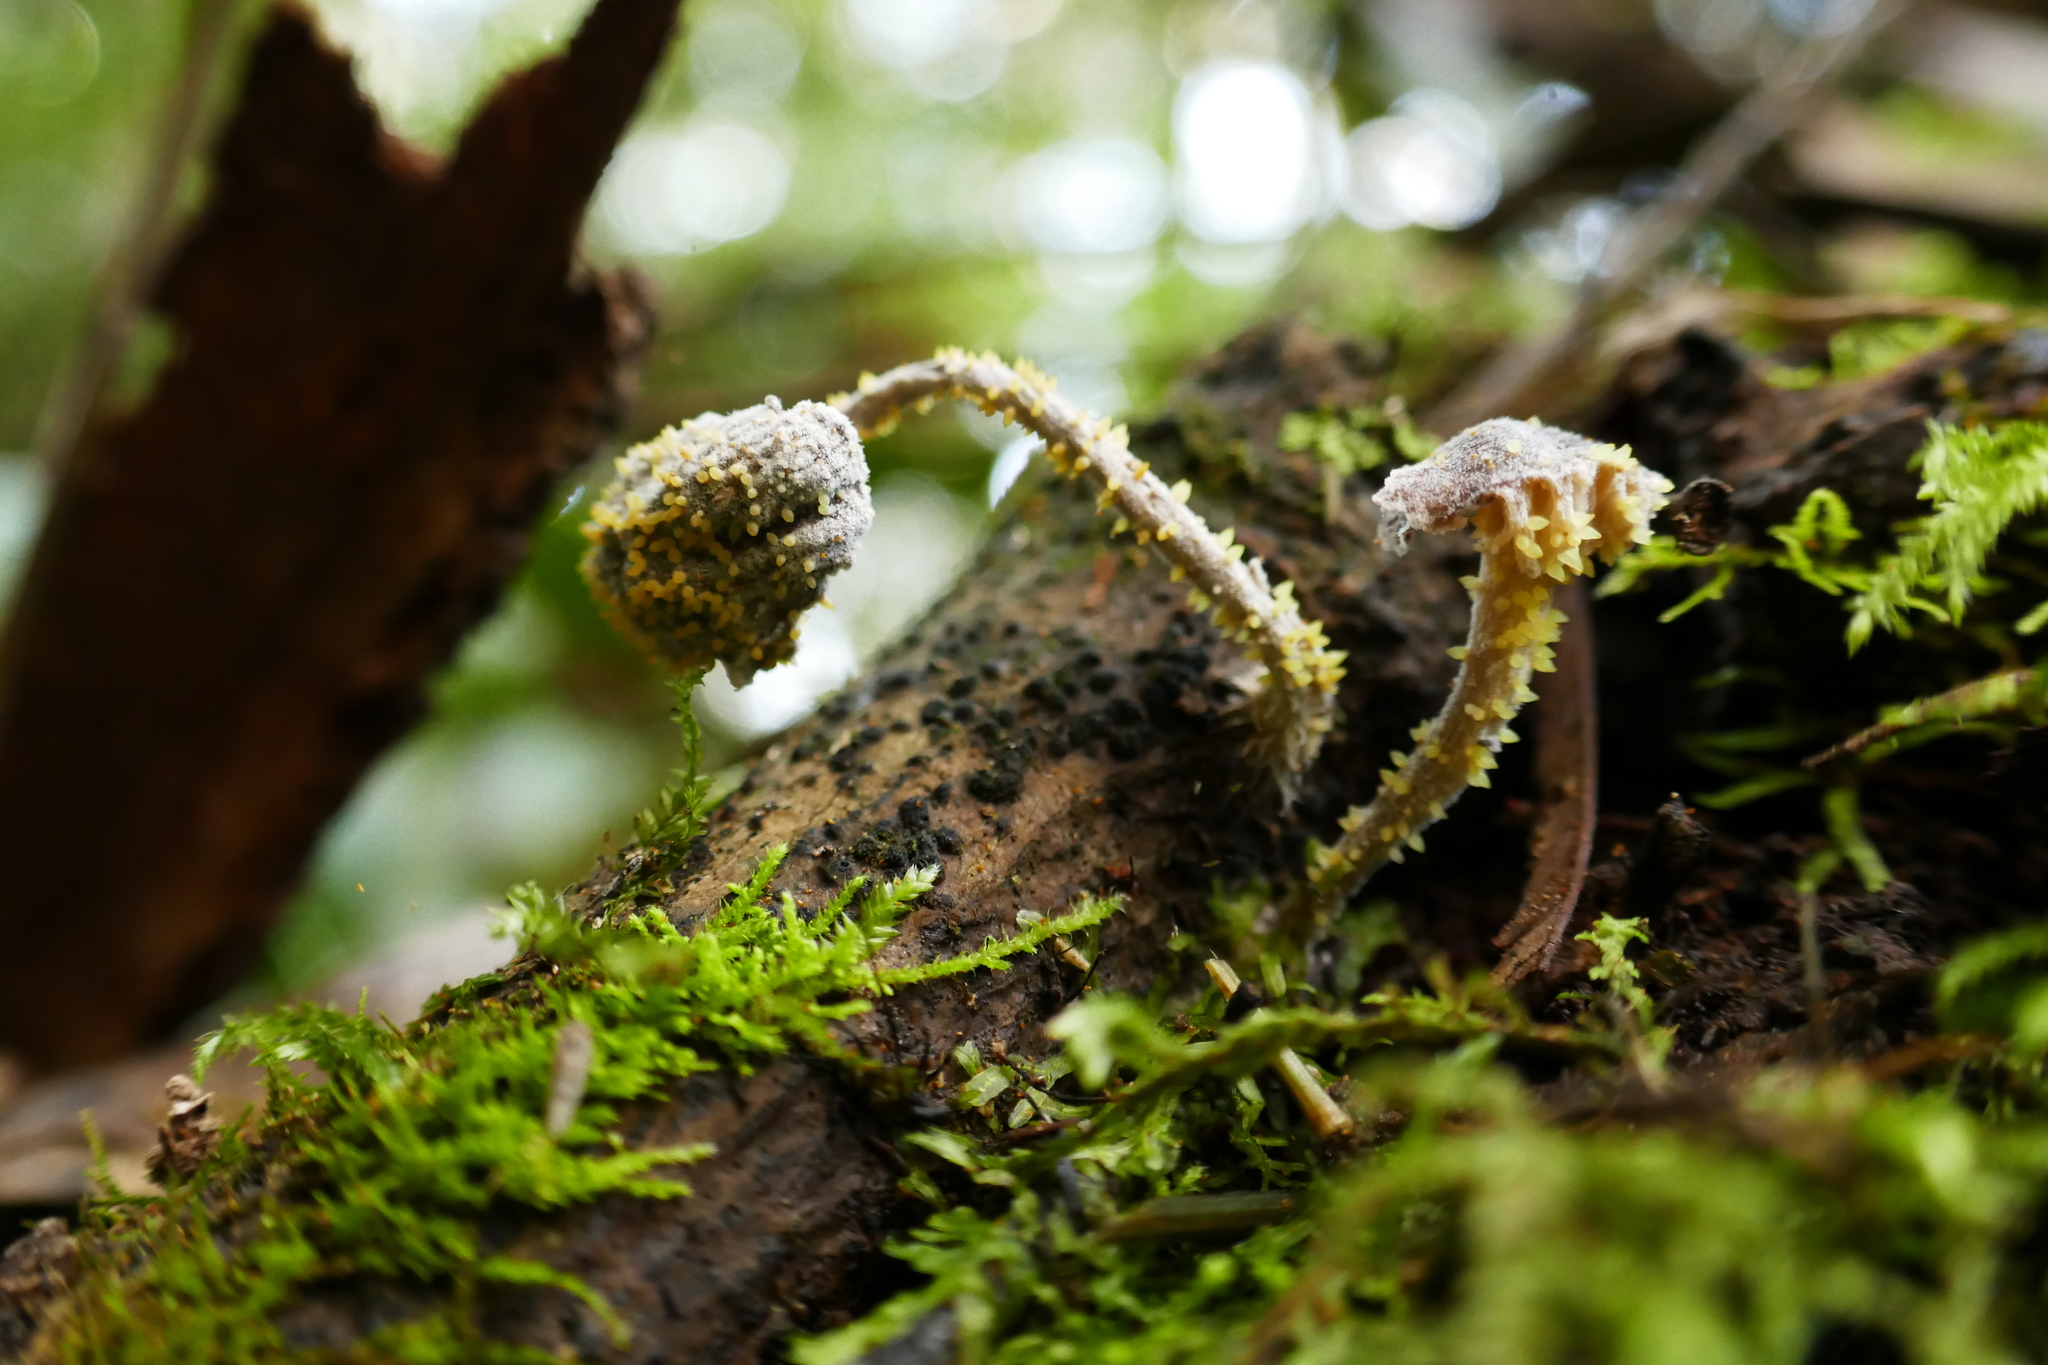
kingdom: Fungi
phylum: Ascomycota
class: Sordariomycetes
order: Hypocreales
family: Clavicipitaceae
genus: Neobarya
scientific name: Neobarya agaricicola
